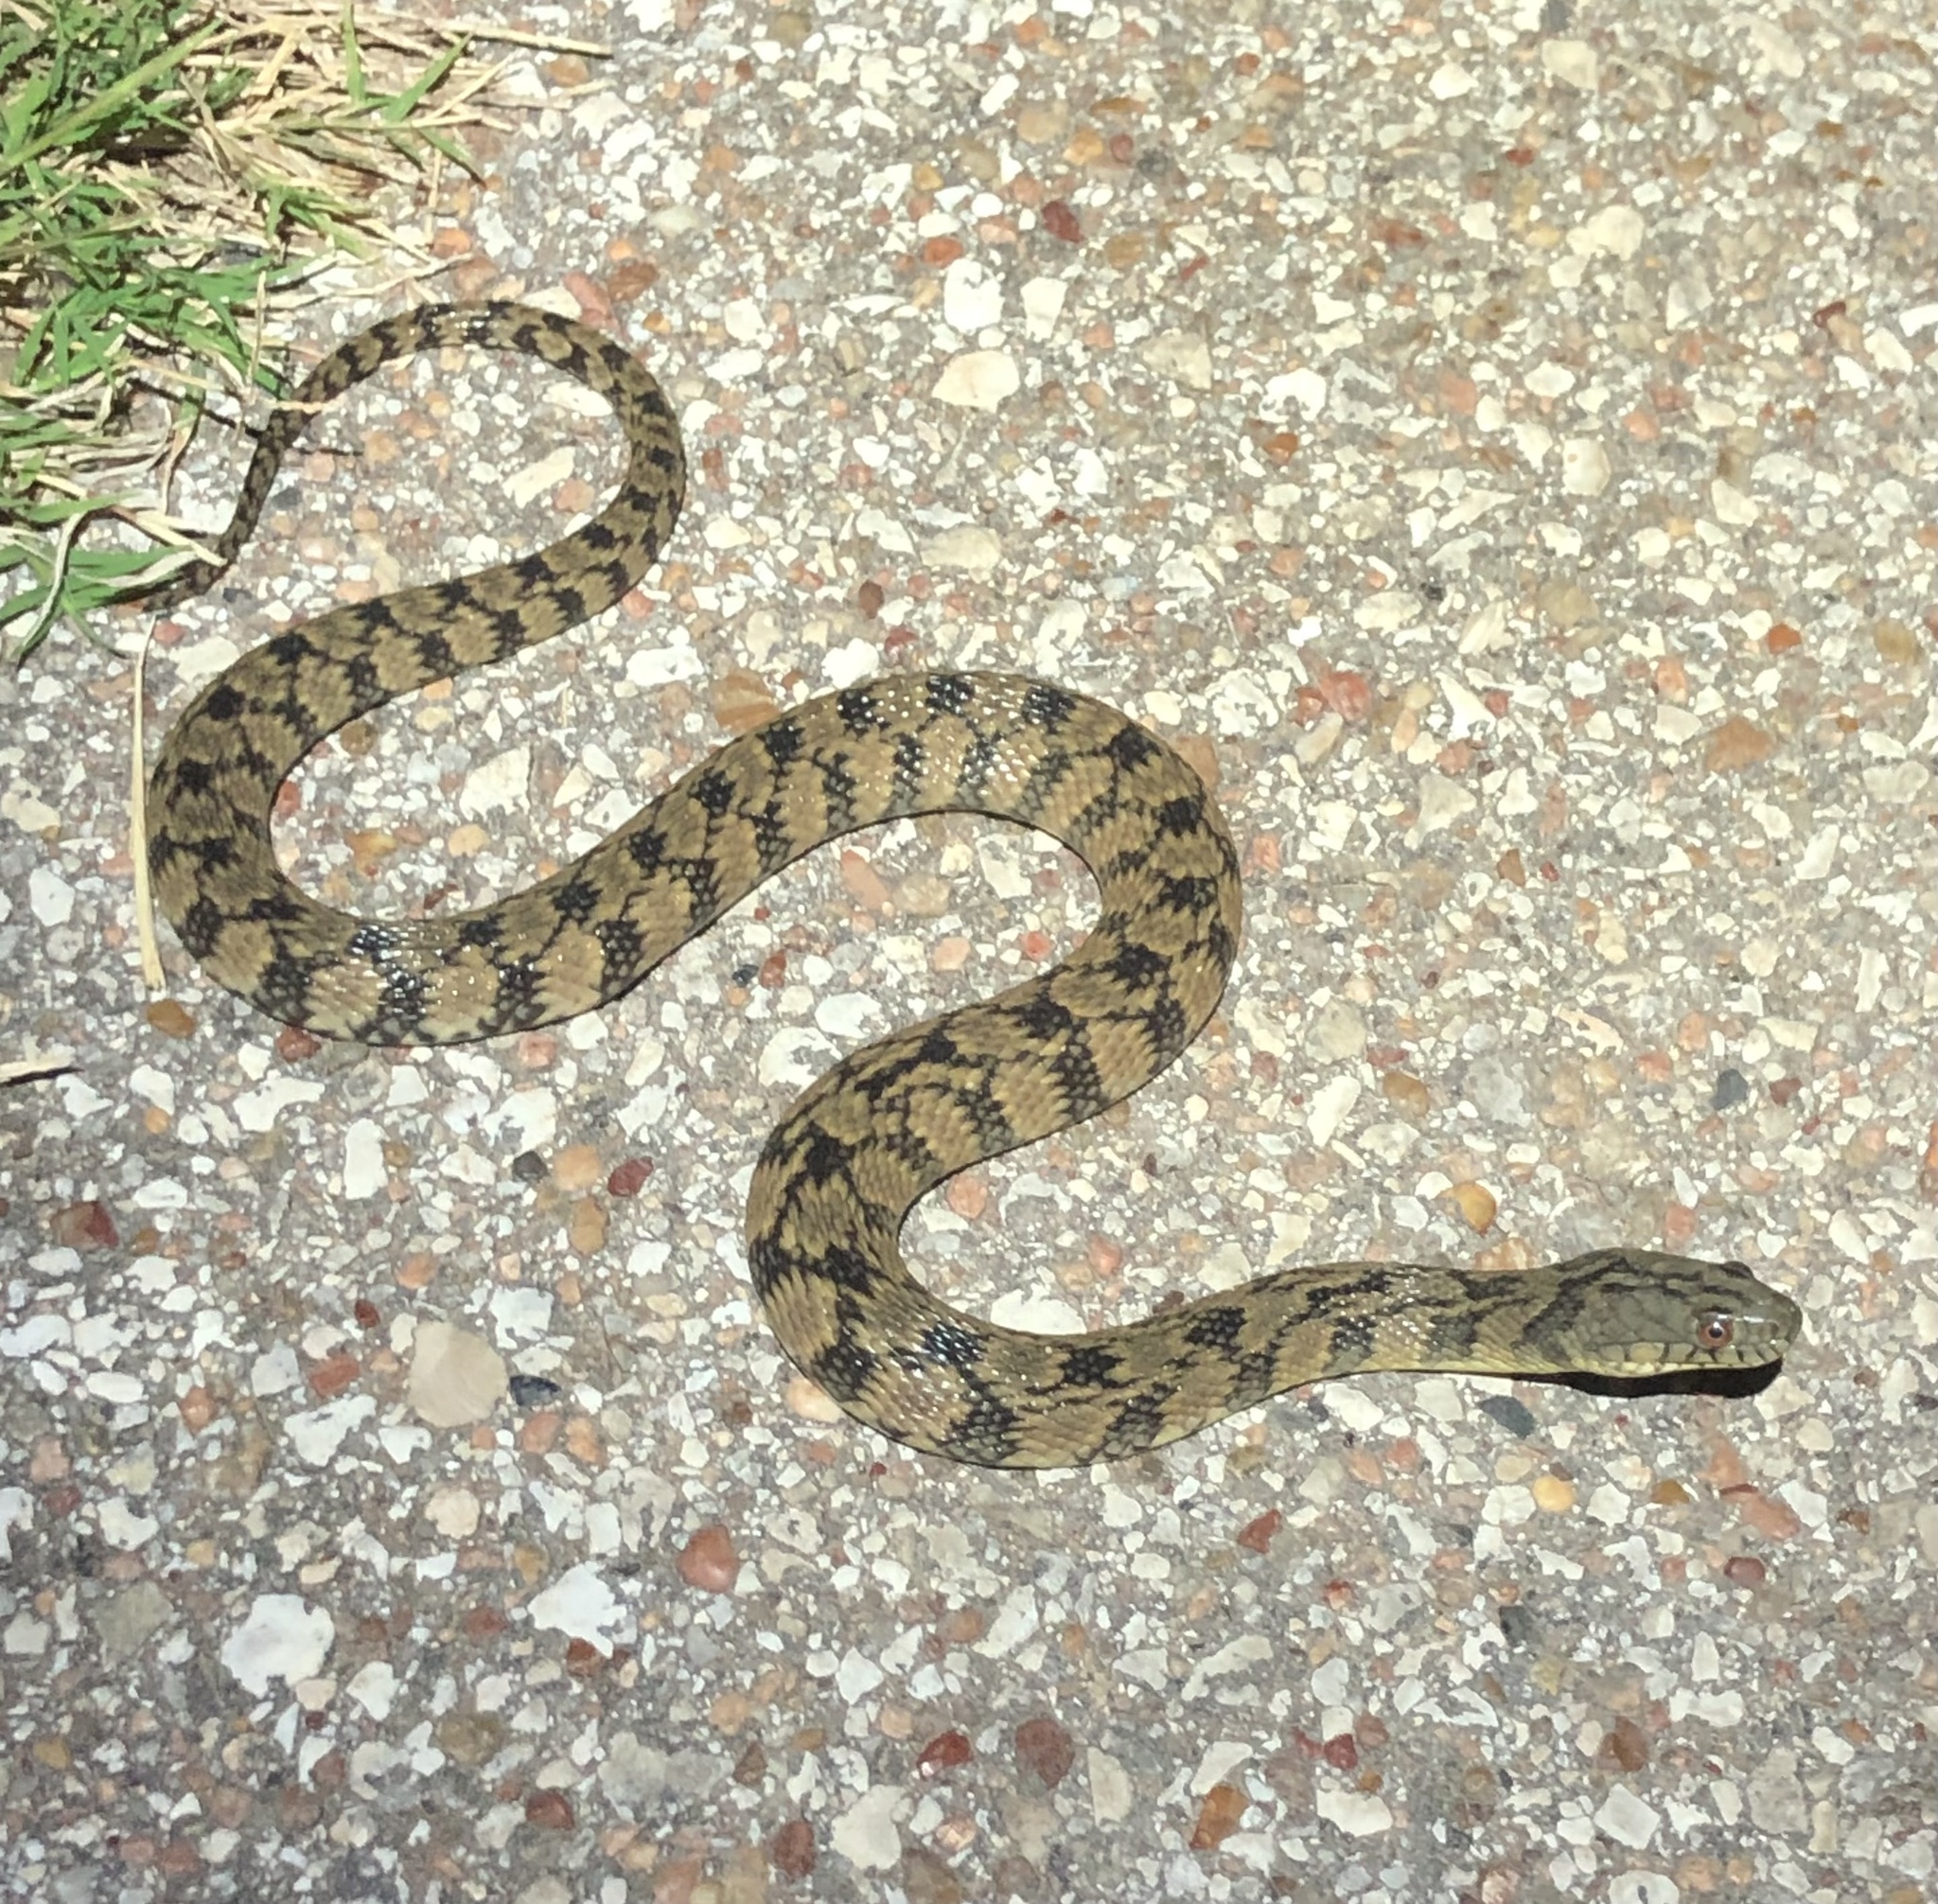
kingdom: Animalia
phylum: Chordata
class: Squamata
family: Colubridae
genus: Nerodia
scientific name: Nerodia rhombifer
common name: Diamondback water snake
